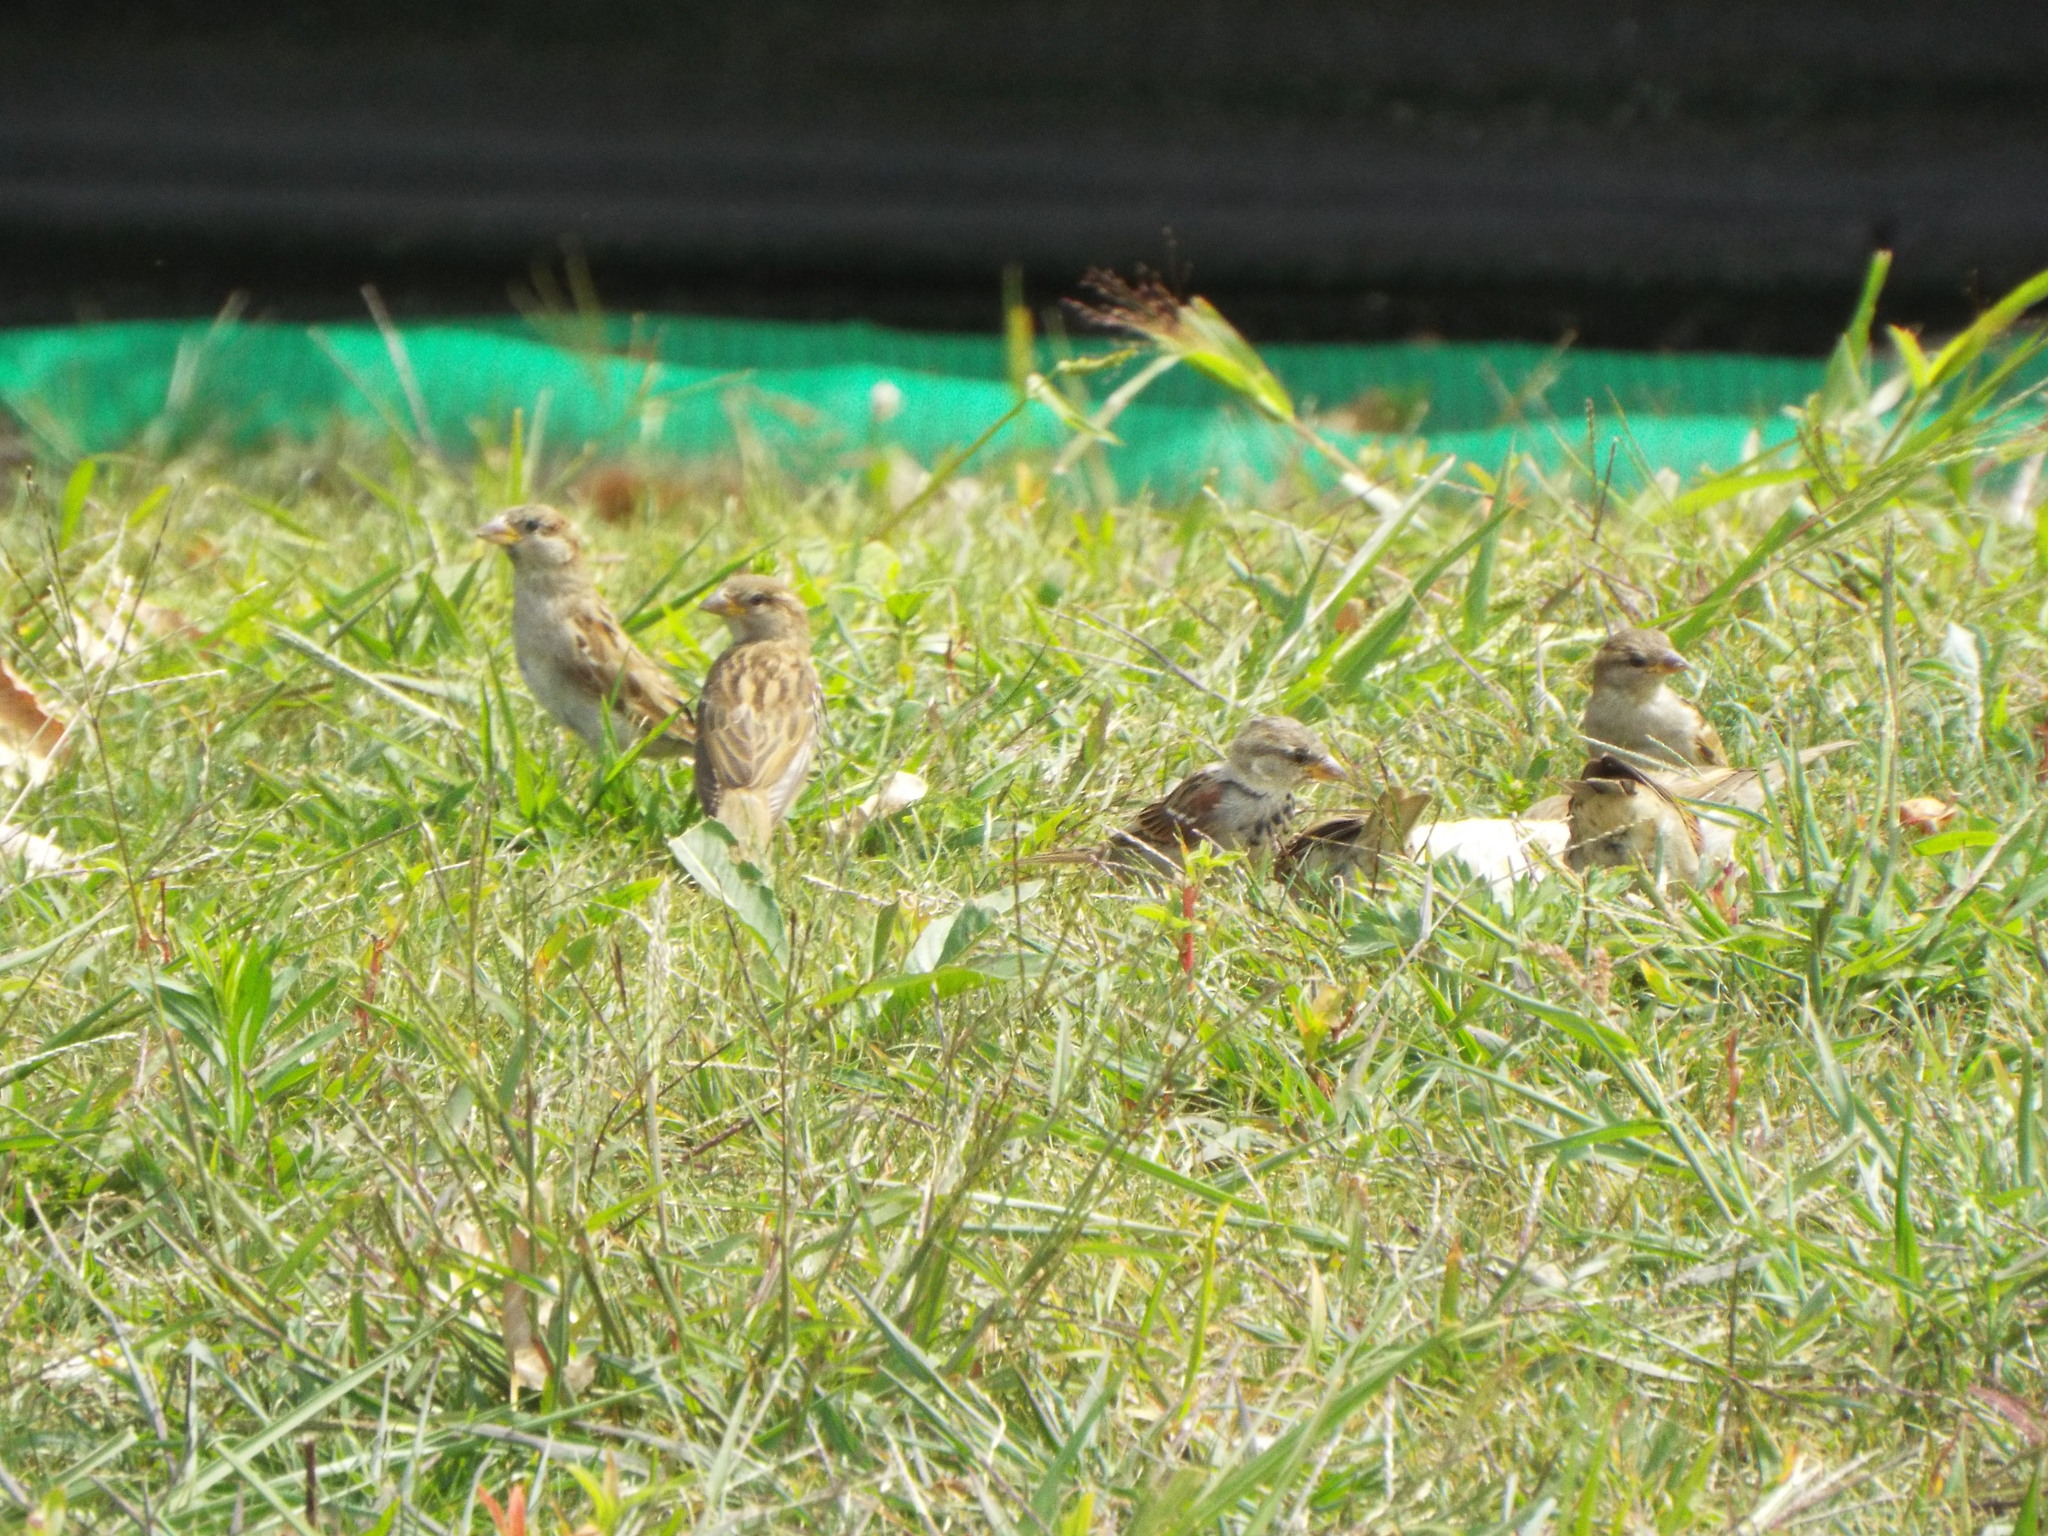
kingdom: Animalia
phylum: Chordata
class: Aves
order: Passeriformes
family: Passeridae
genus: Passer
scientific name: Passer domesticus
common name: House sparrow
